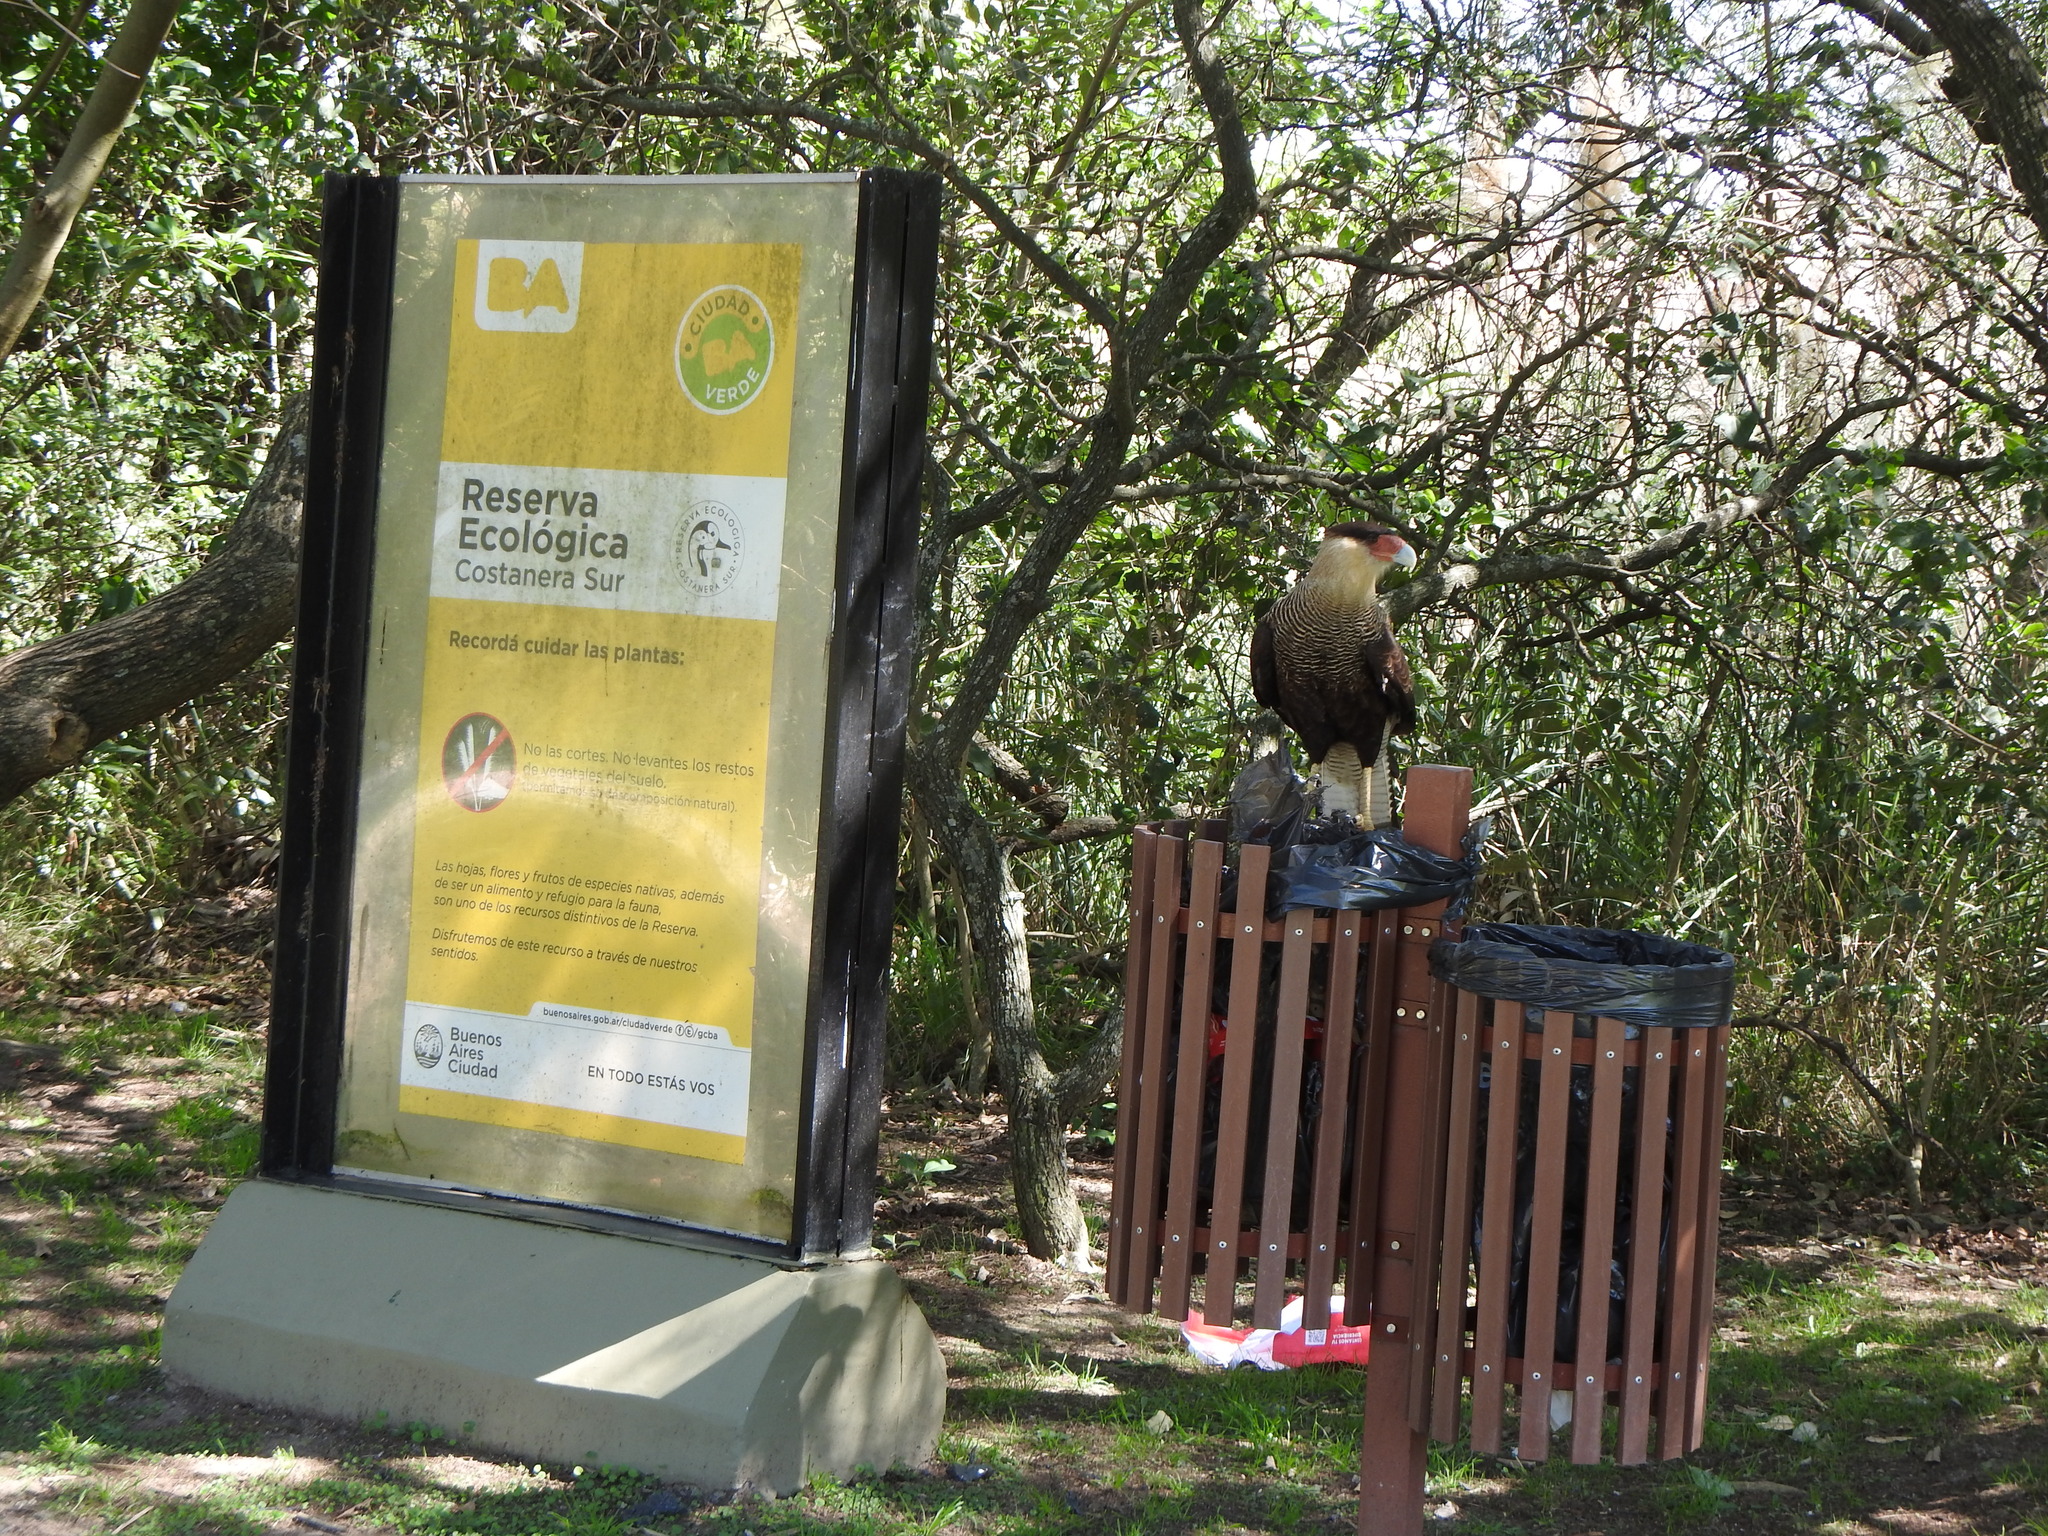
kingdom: Animalia
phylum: Chordata
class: Aves
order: Falconiformes
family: Falconidae
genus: Caracara
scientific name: Caracara plancus
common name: Southern caracara
